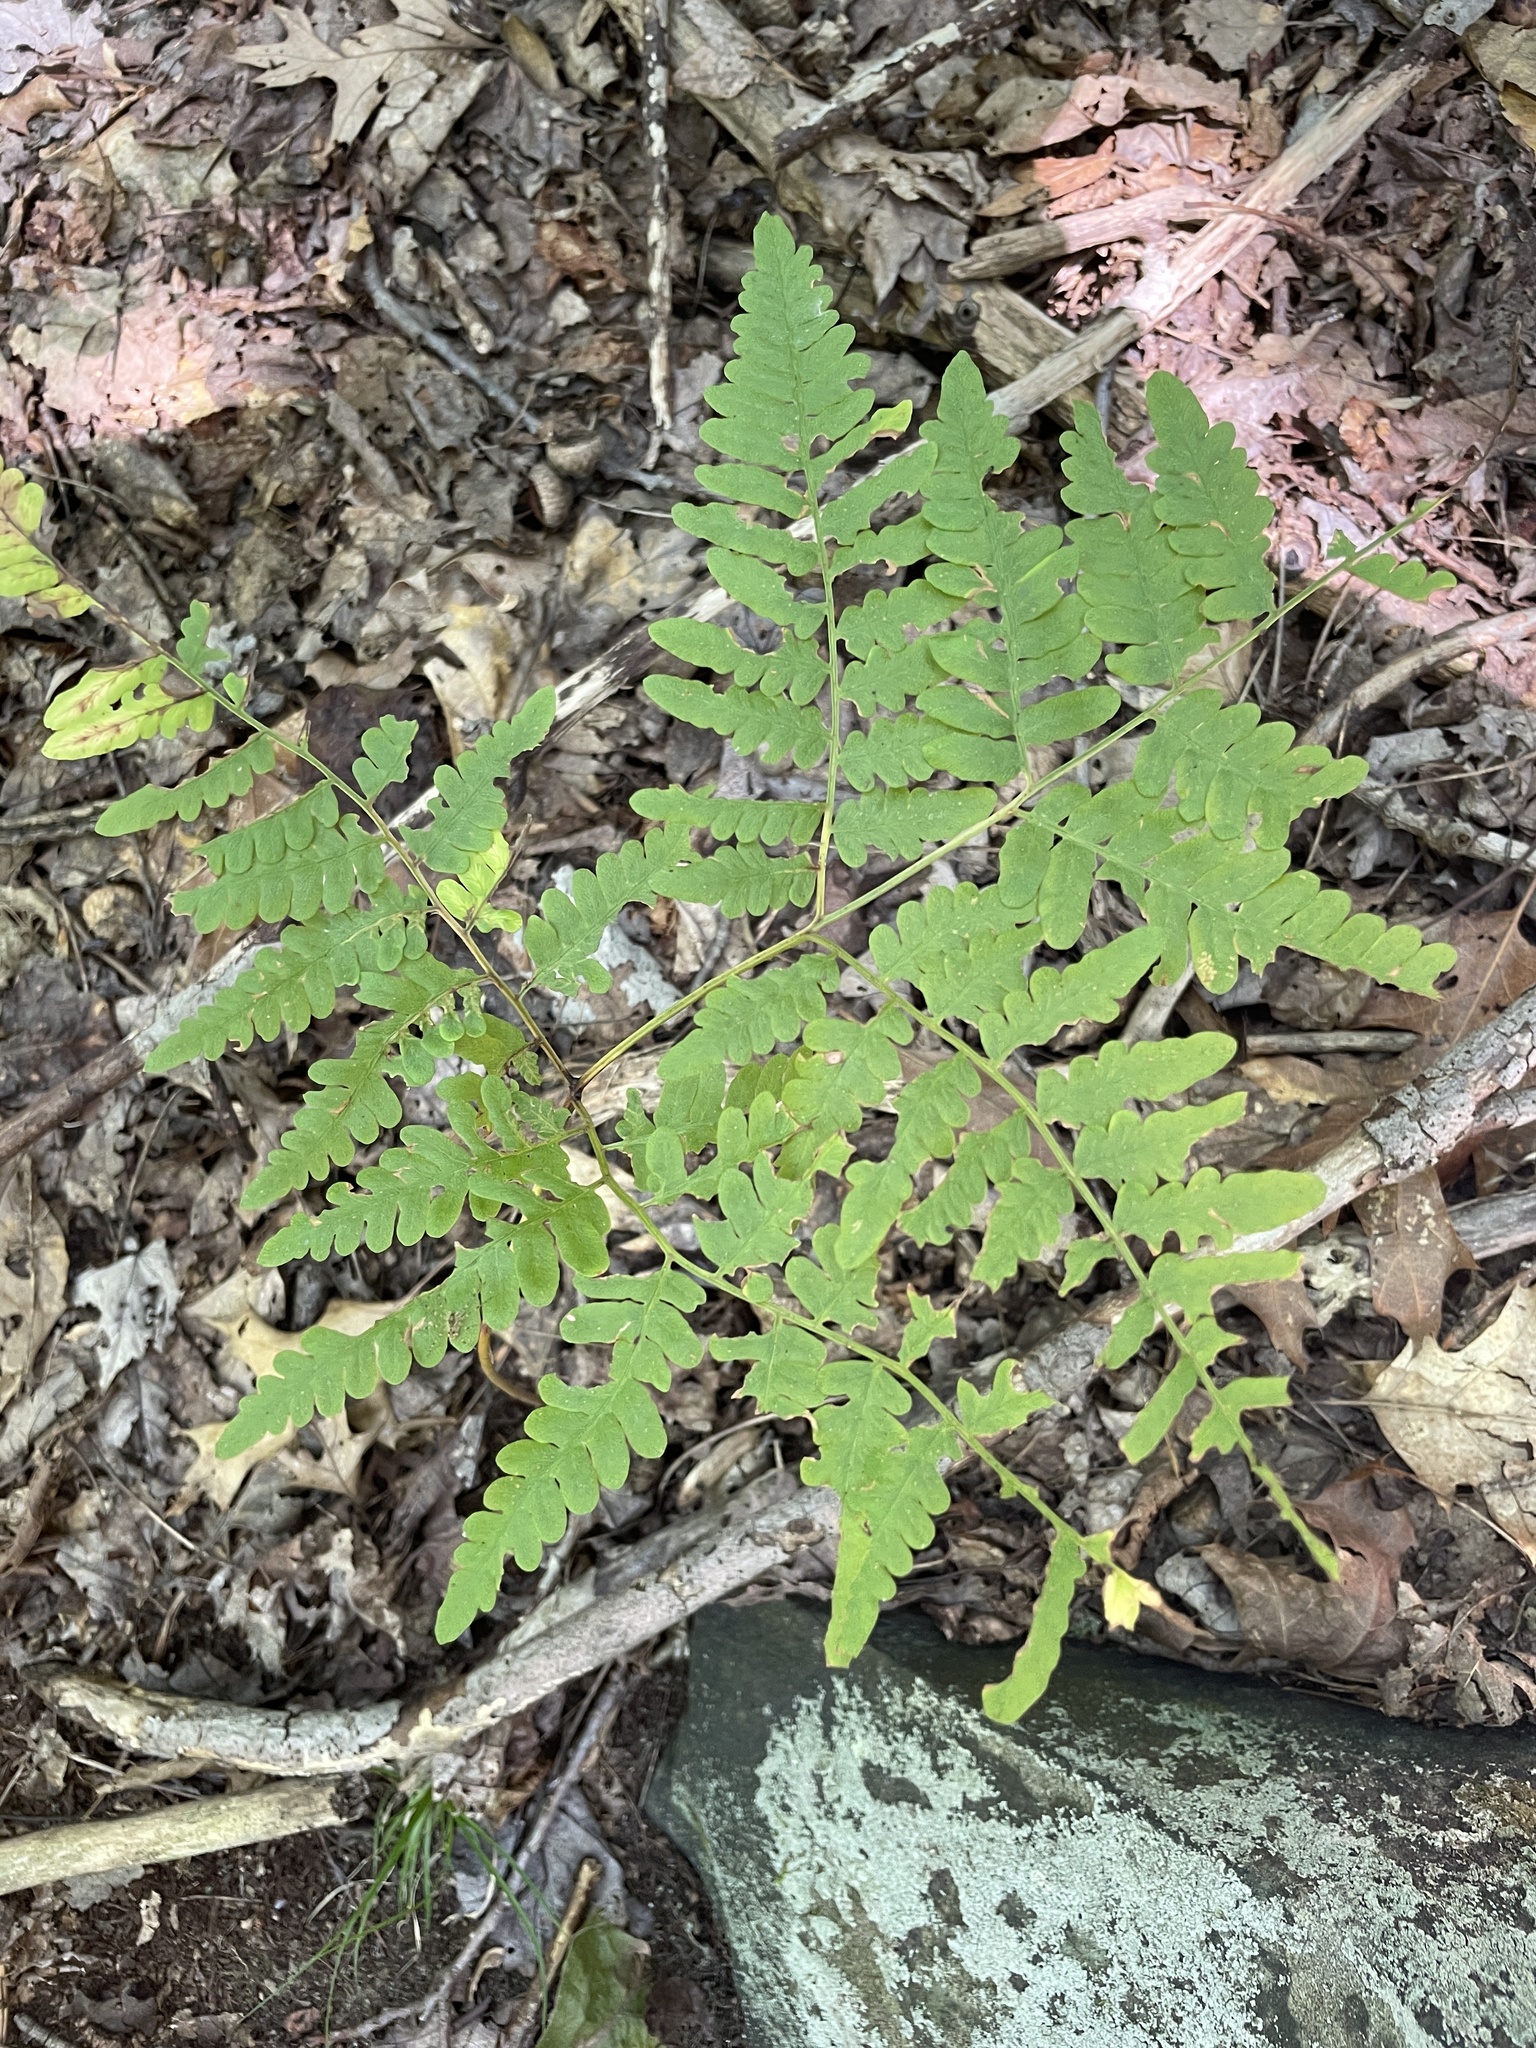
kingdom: Plantae
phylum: Tracheophyta
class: Polypodiopsida
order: Polypodiales
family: Dennstaedtiaceae
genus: Pteridium
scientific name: Pteridium aquilinum
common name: Bracken
